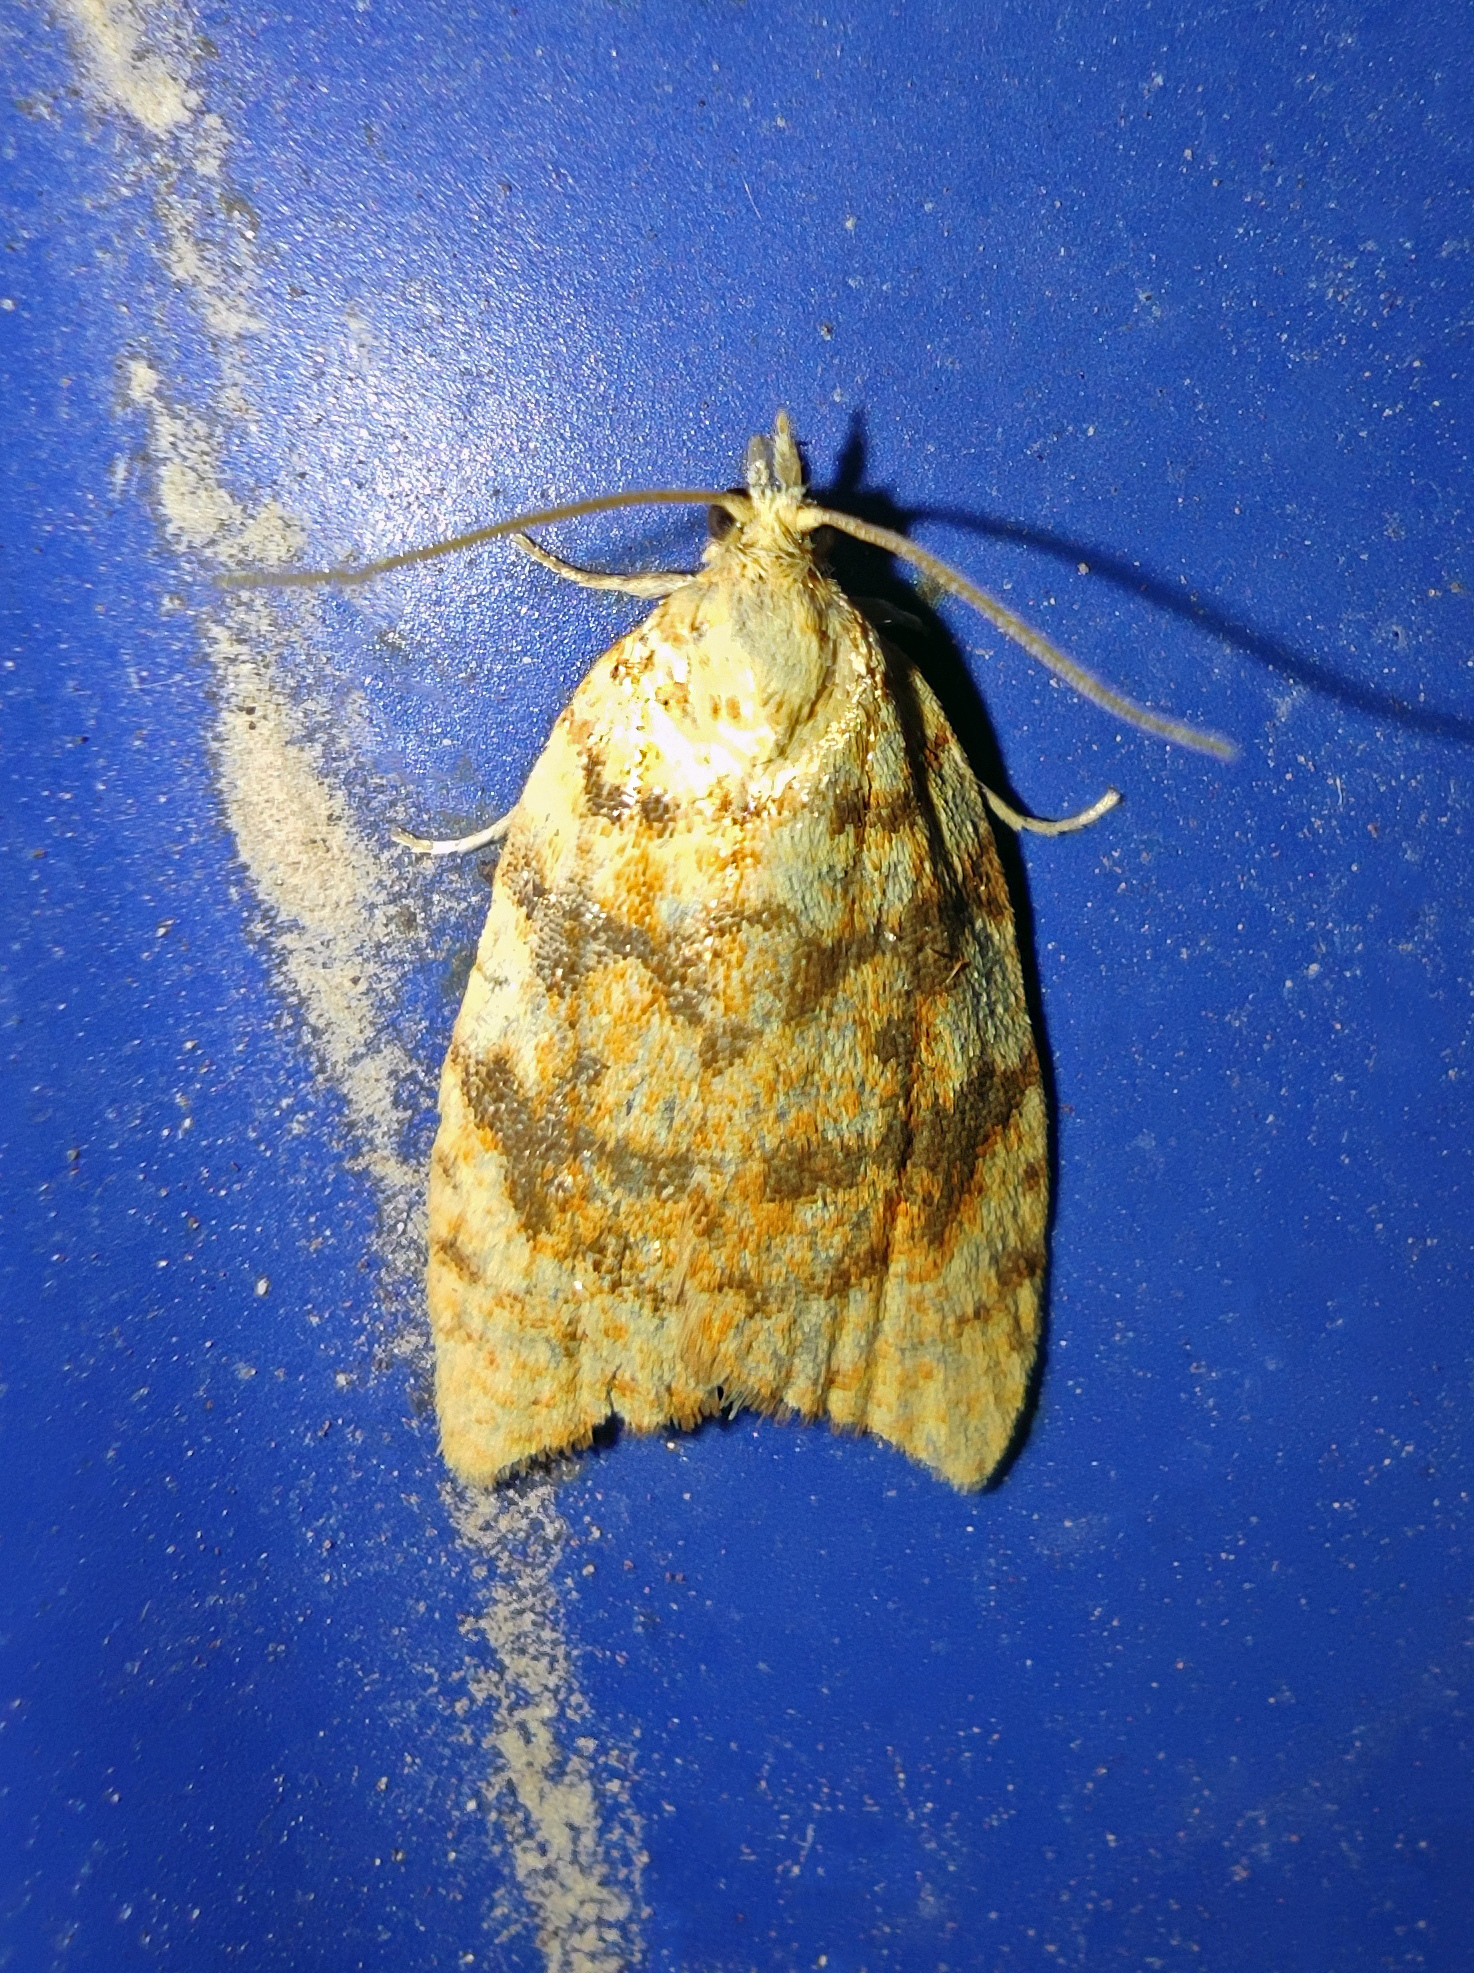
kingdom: Animalia
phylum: Arthropoda
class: Insecta
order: Lepidoptera
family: Tortricidae
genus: Aleimma
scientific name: Aleimma loeflingiana
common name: Yellow oak button
